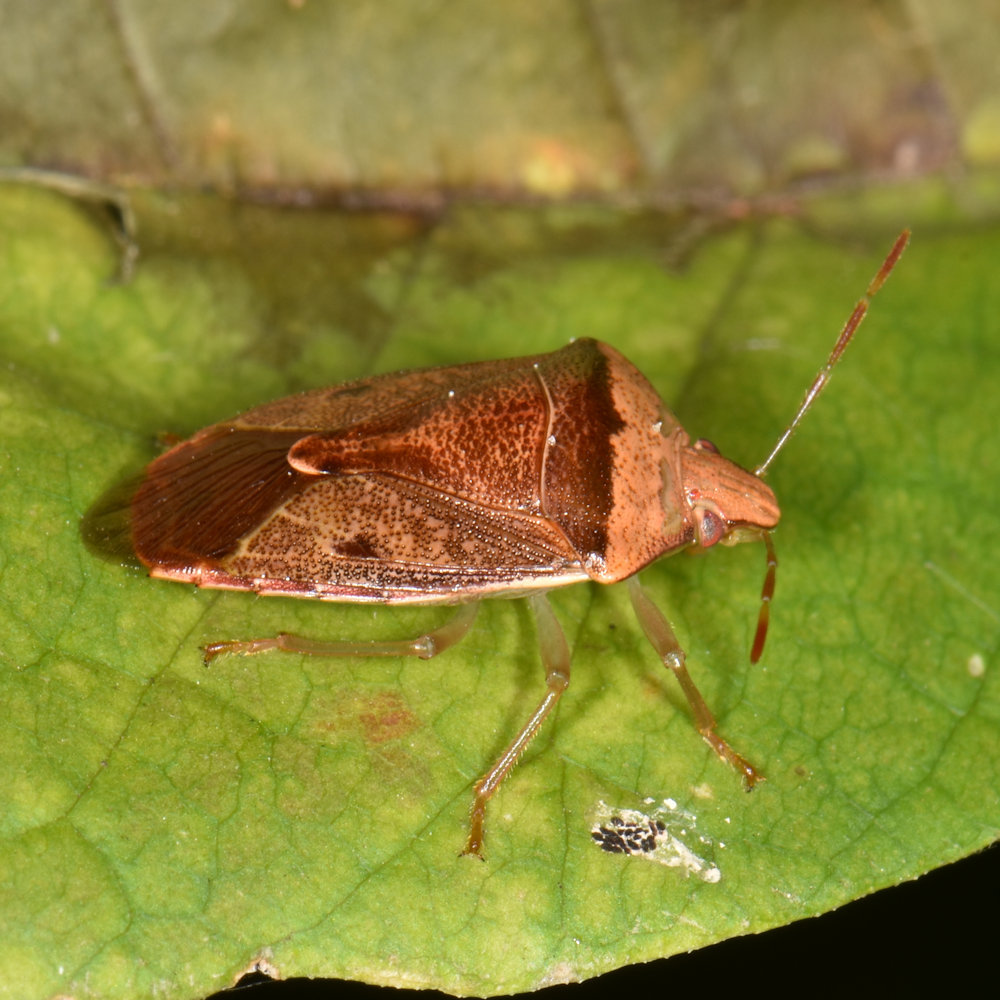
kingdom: Animalia
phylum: Arthropoda
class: Insecta
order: Hemiptera
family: Pentatomidae
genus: Banasa
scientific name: Banasa calva
